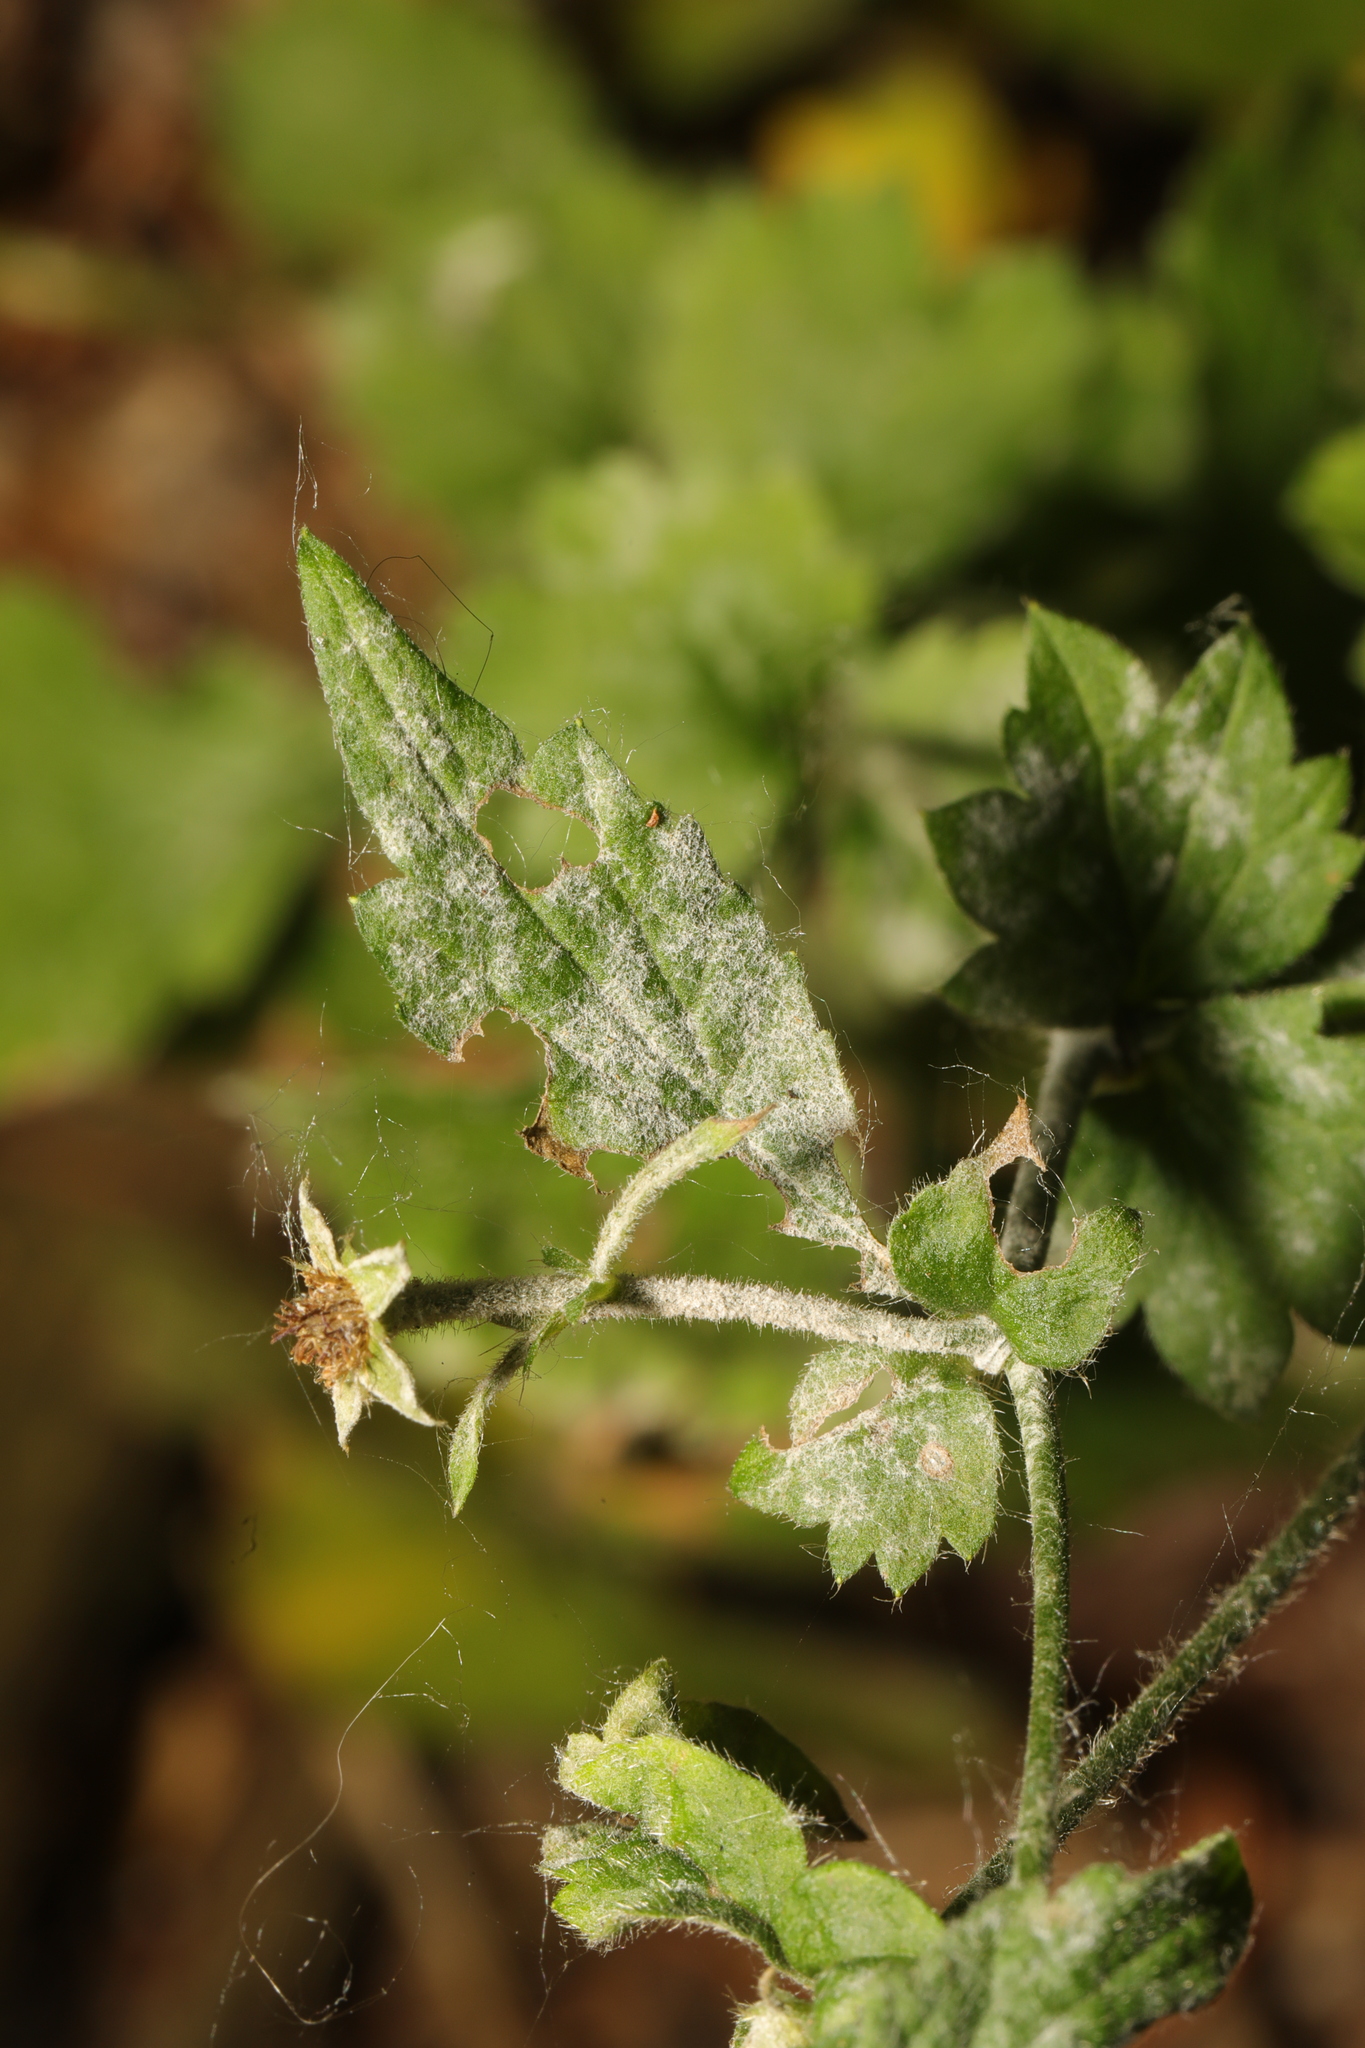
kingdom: Fungi
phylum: Ascomycota
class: Leotiomycetes
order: Helotiales
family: Erysiphaceae
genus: Podosphaera
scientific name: Podosphaera aphanis
